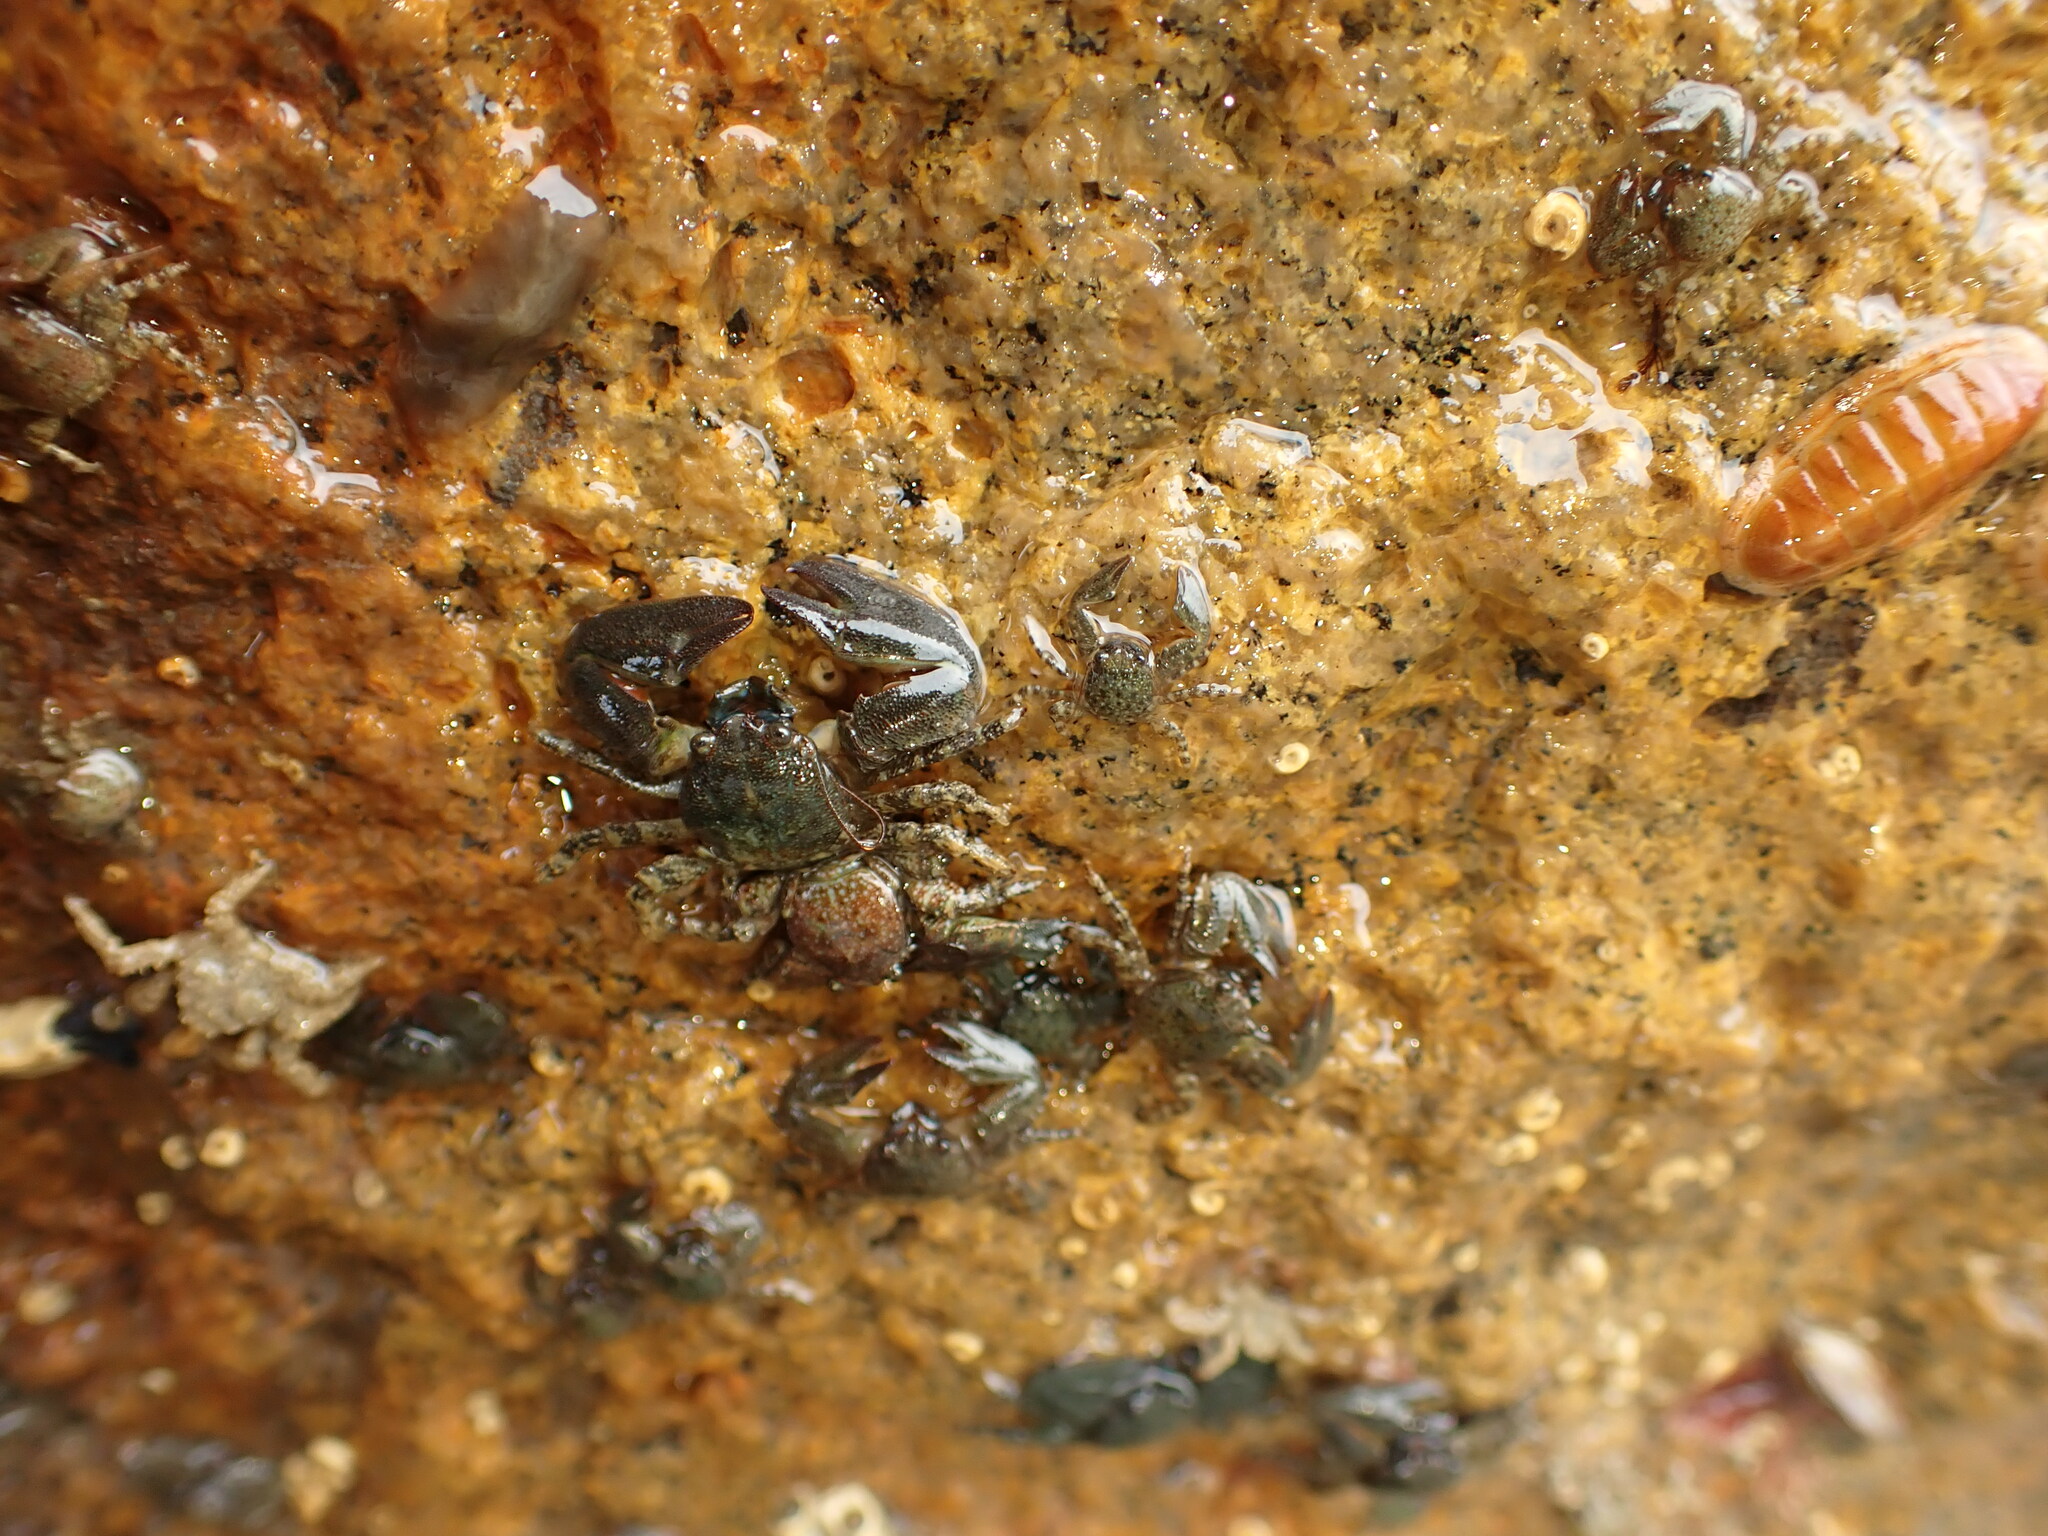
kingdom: Animalia
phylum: Arthropoda
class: Malacostraca
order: Decapoda
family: Porcellanidae
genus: Petrolisthes
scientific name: Petrolisthes elongatus
